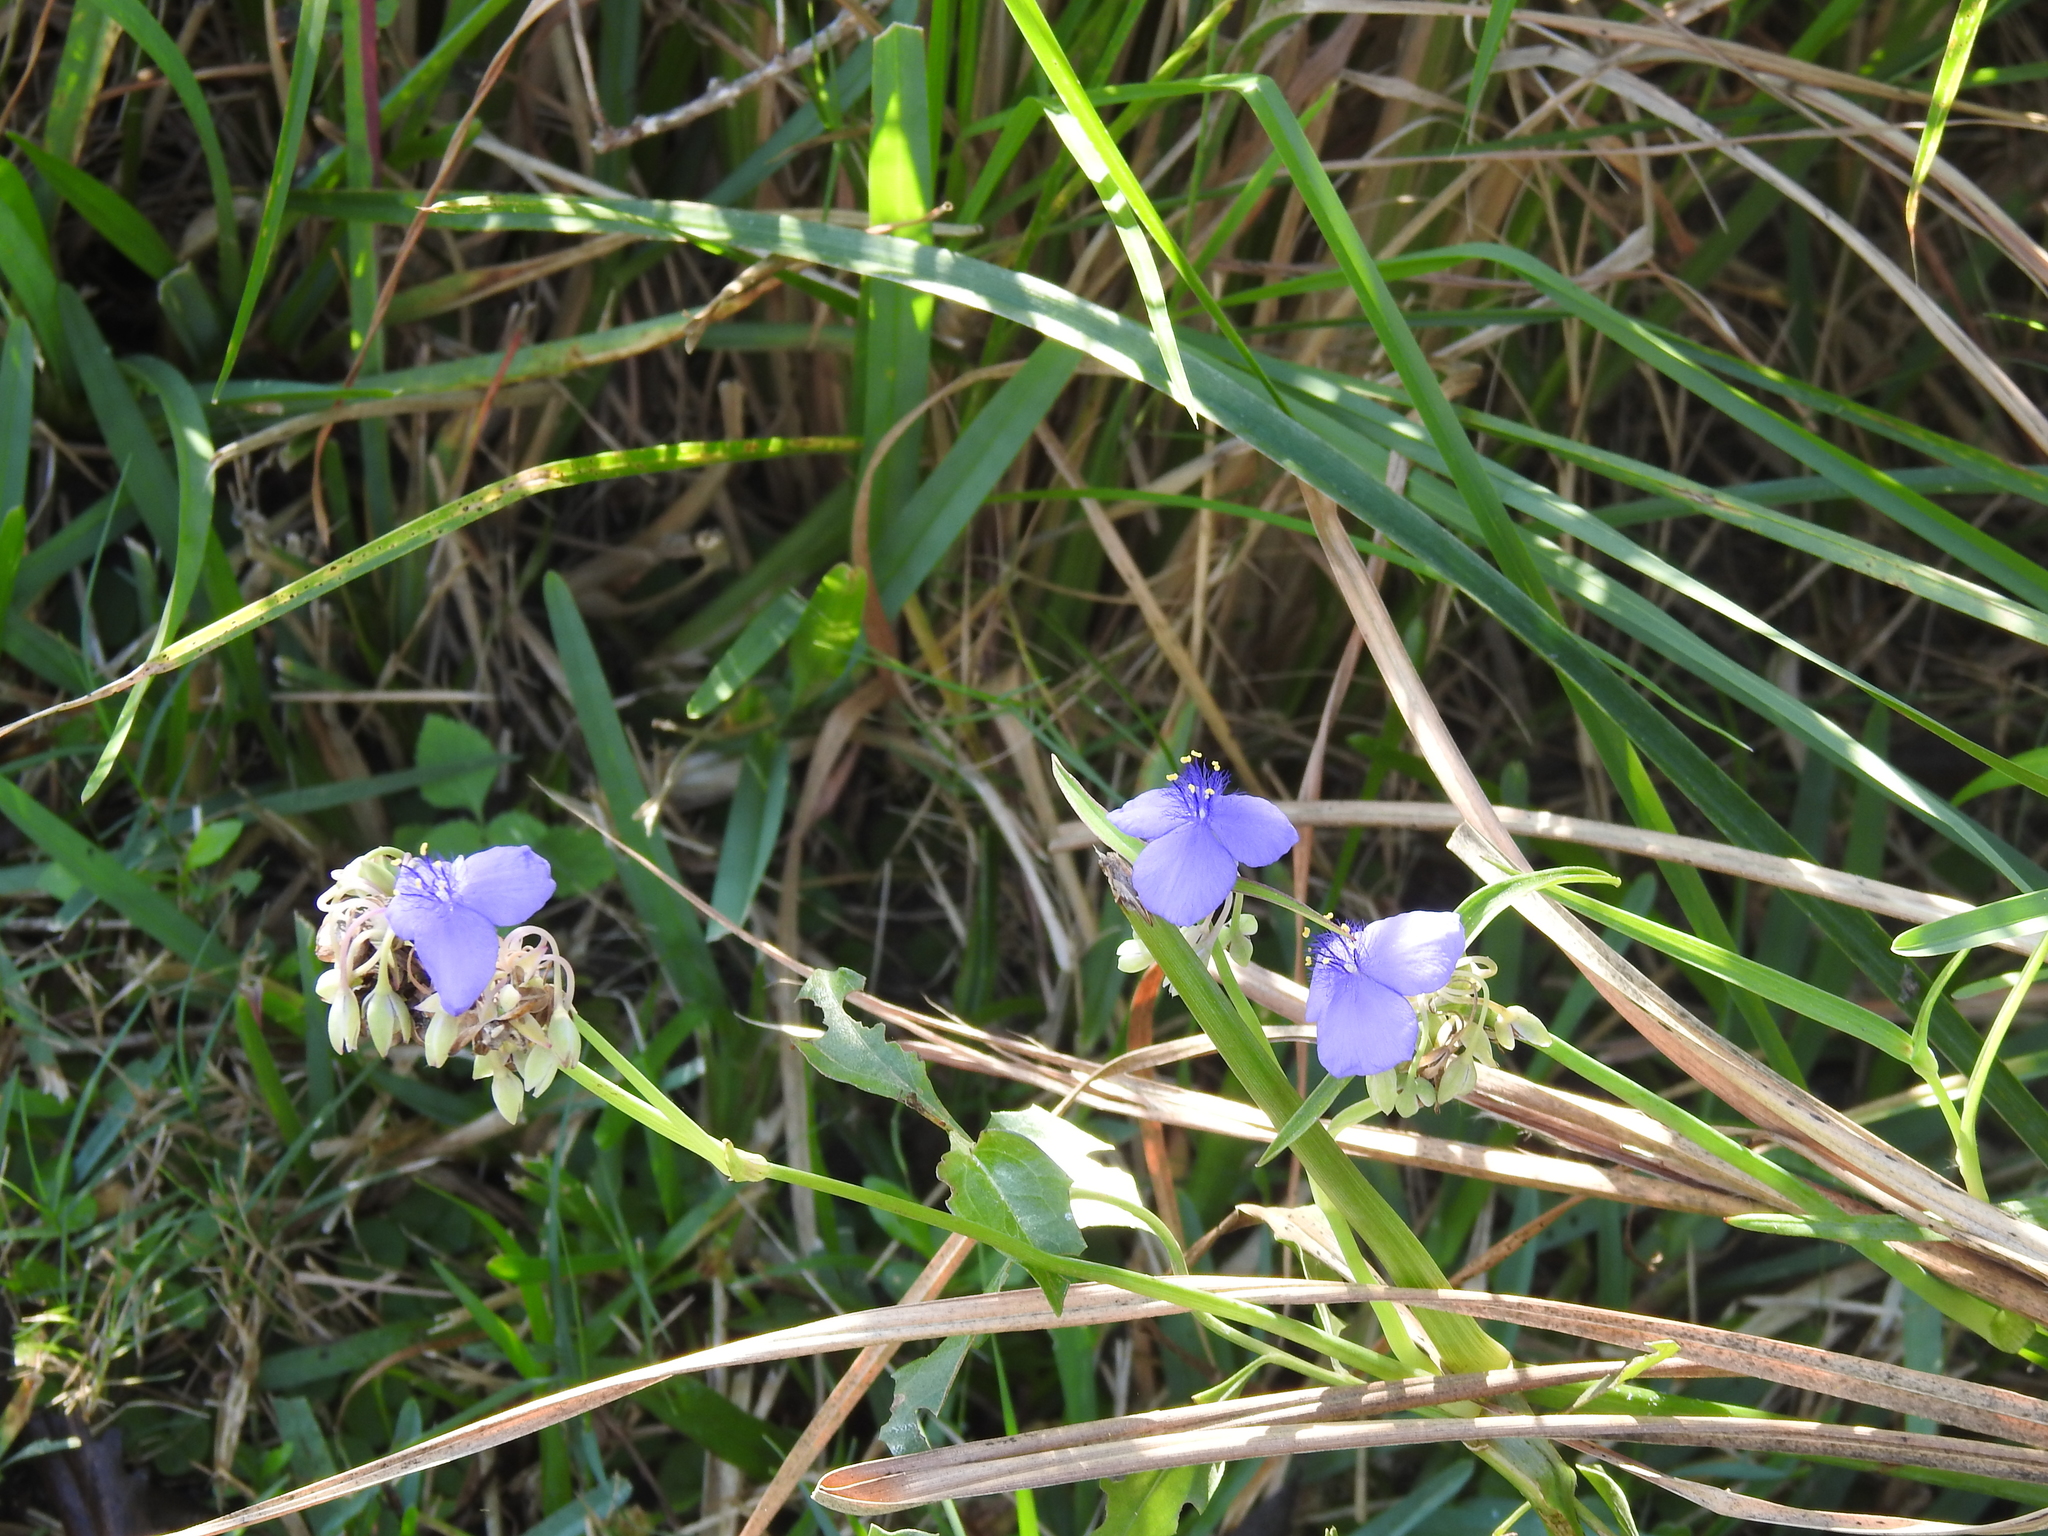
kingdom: Plantae
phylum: Tracheophyta
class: Liliopsida
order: Commelinales
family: Commelinaceae
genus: Tradescantia
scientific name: Tradescantia ohiensis
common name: Ohio spiderwort
